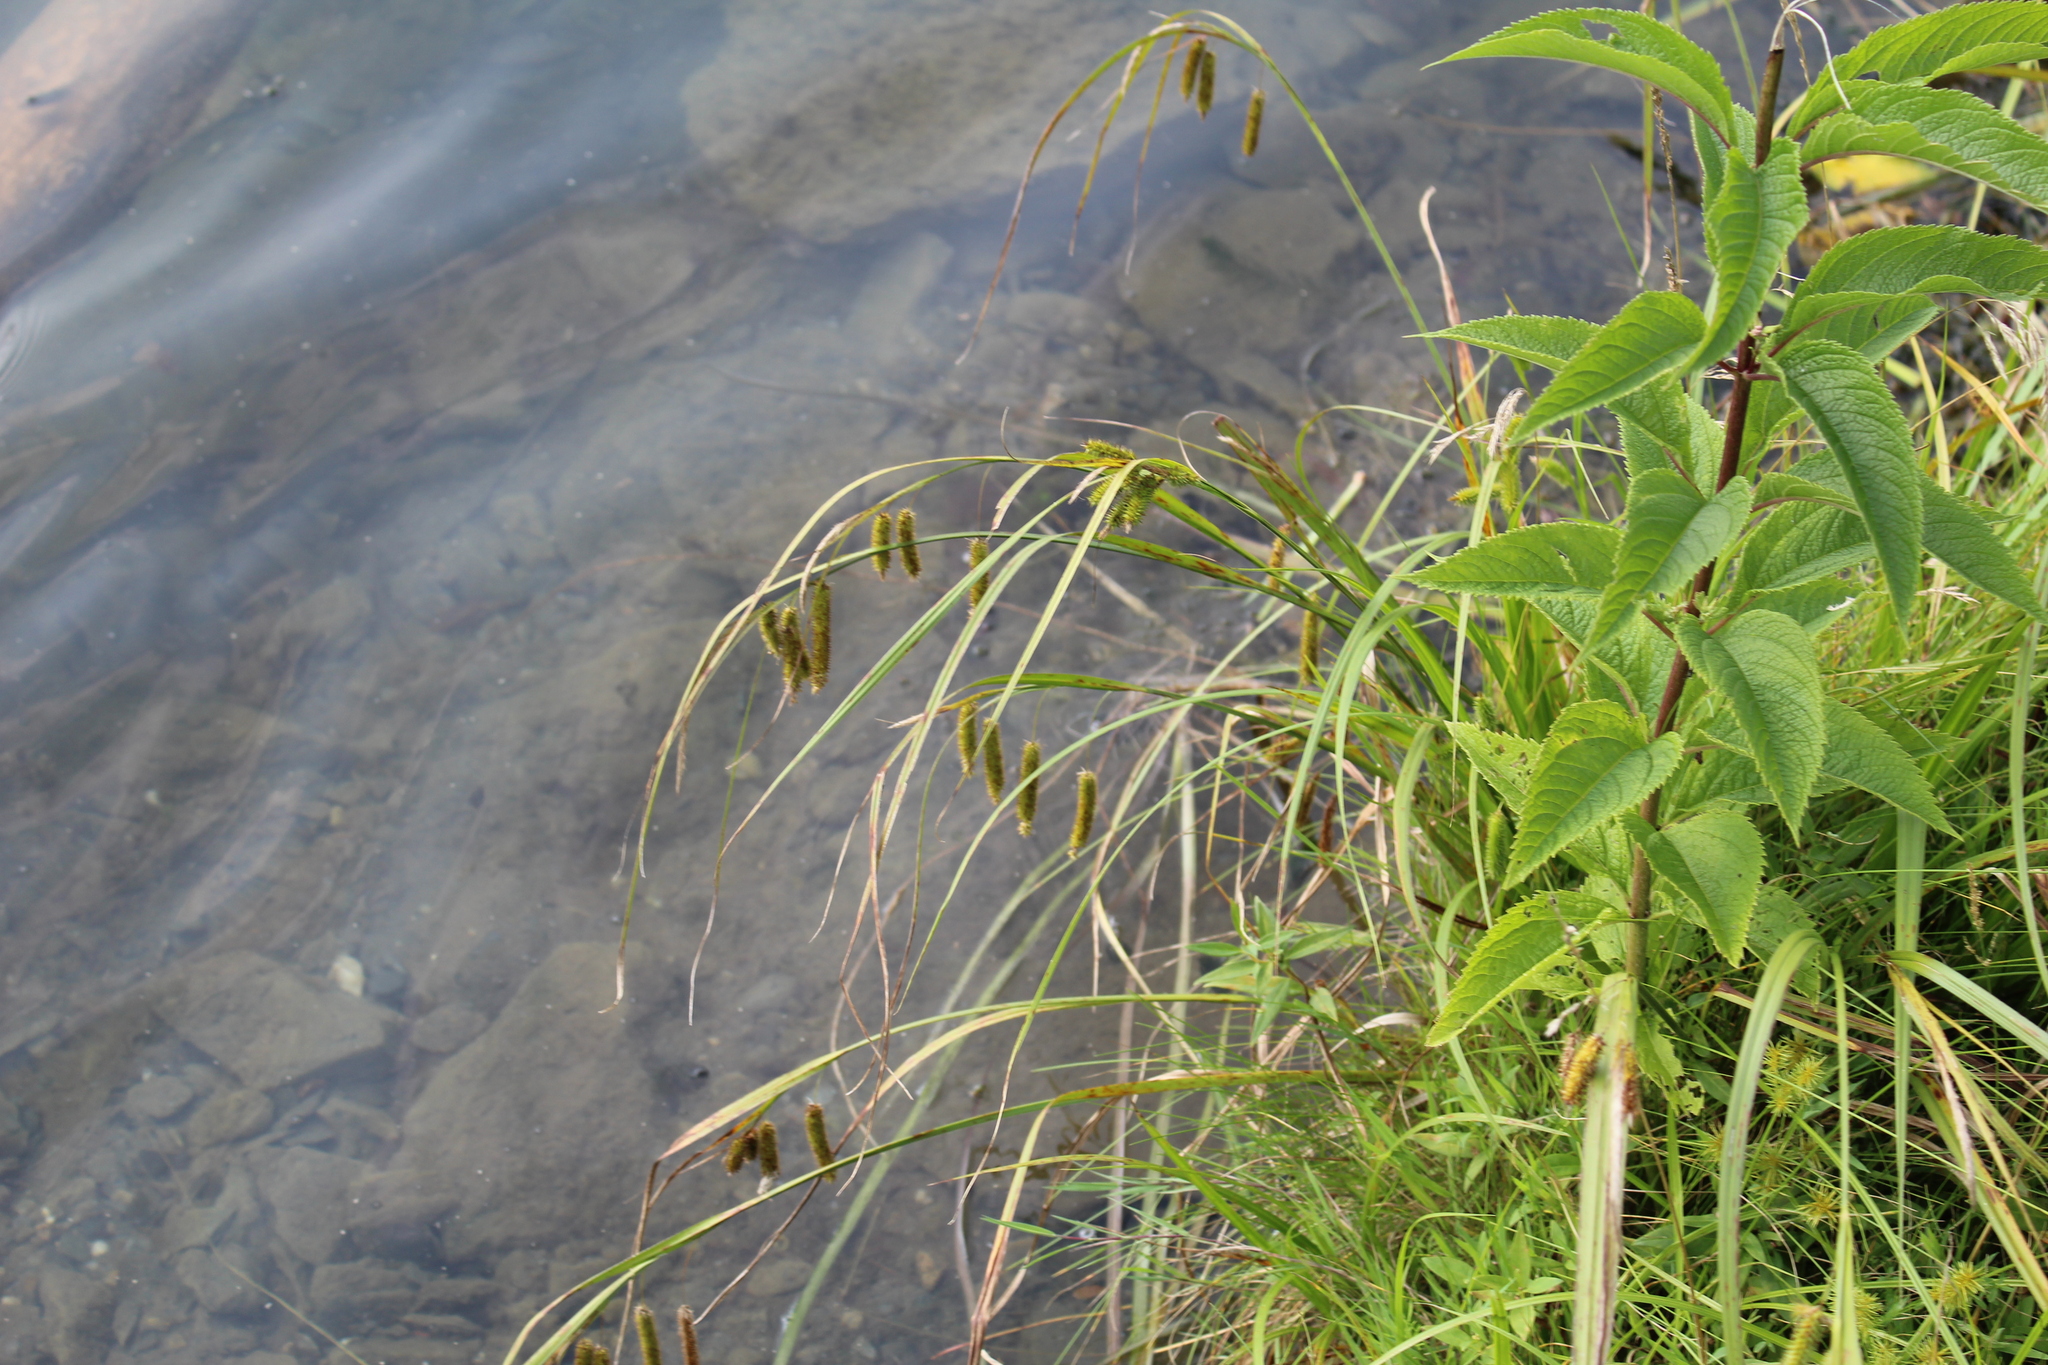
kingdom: Plantae
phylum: Tracheophyta
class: Liliopsida
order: Poales
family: Cyperaceae
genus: Carex
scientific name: Carex pseudocyperus
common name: Cyperus sedge
